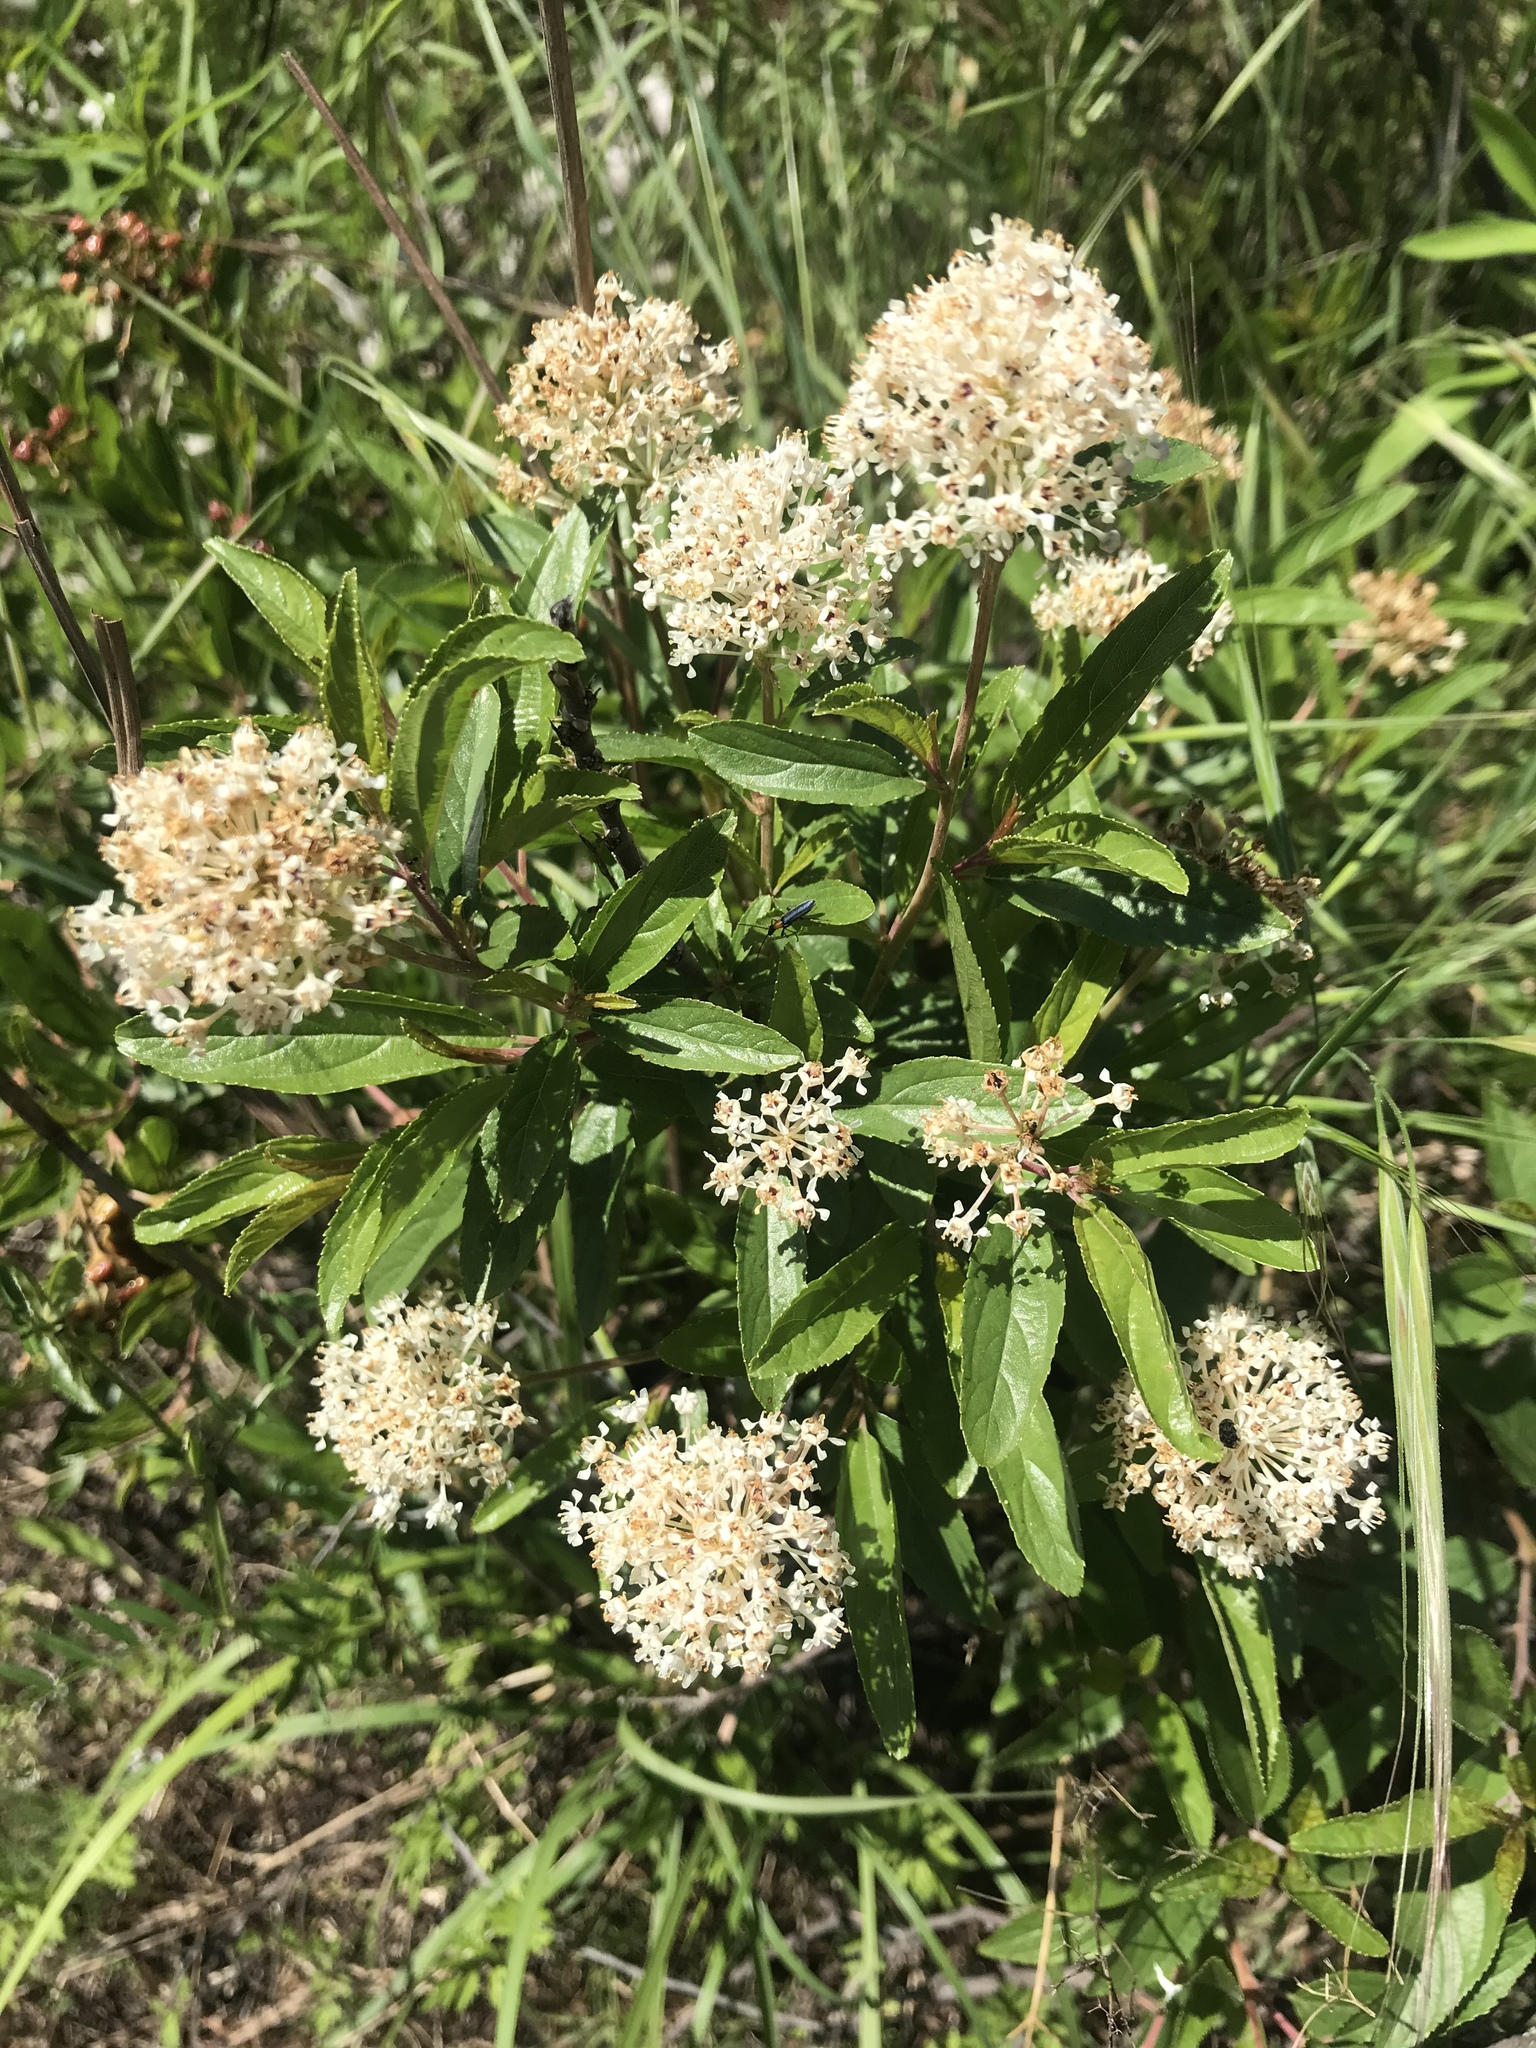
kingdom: Plantae
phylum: Tracheophyta
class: Magnoliopsida
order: Rosales
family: Rhamnaceae
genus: Ceanothus
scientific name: Ceanothus herbaceus
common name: Inland ceanothus
